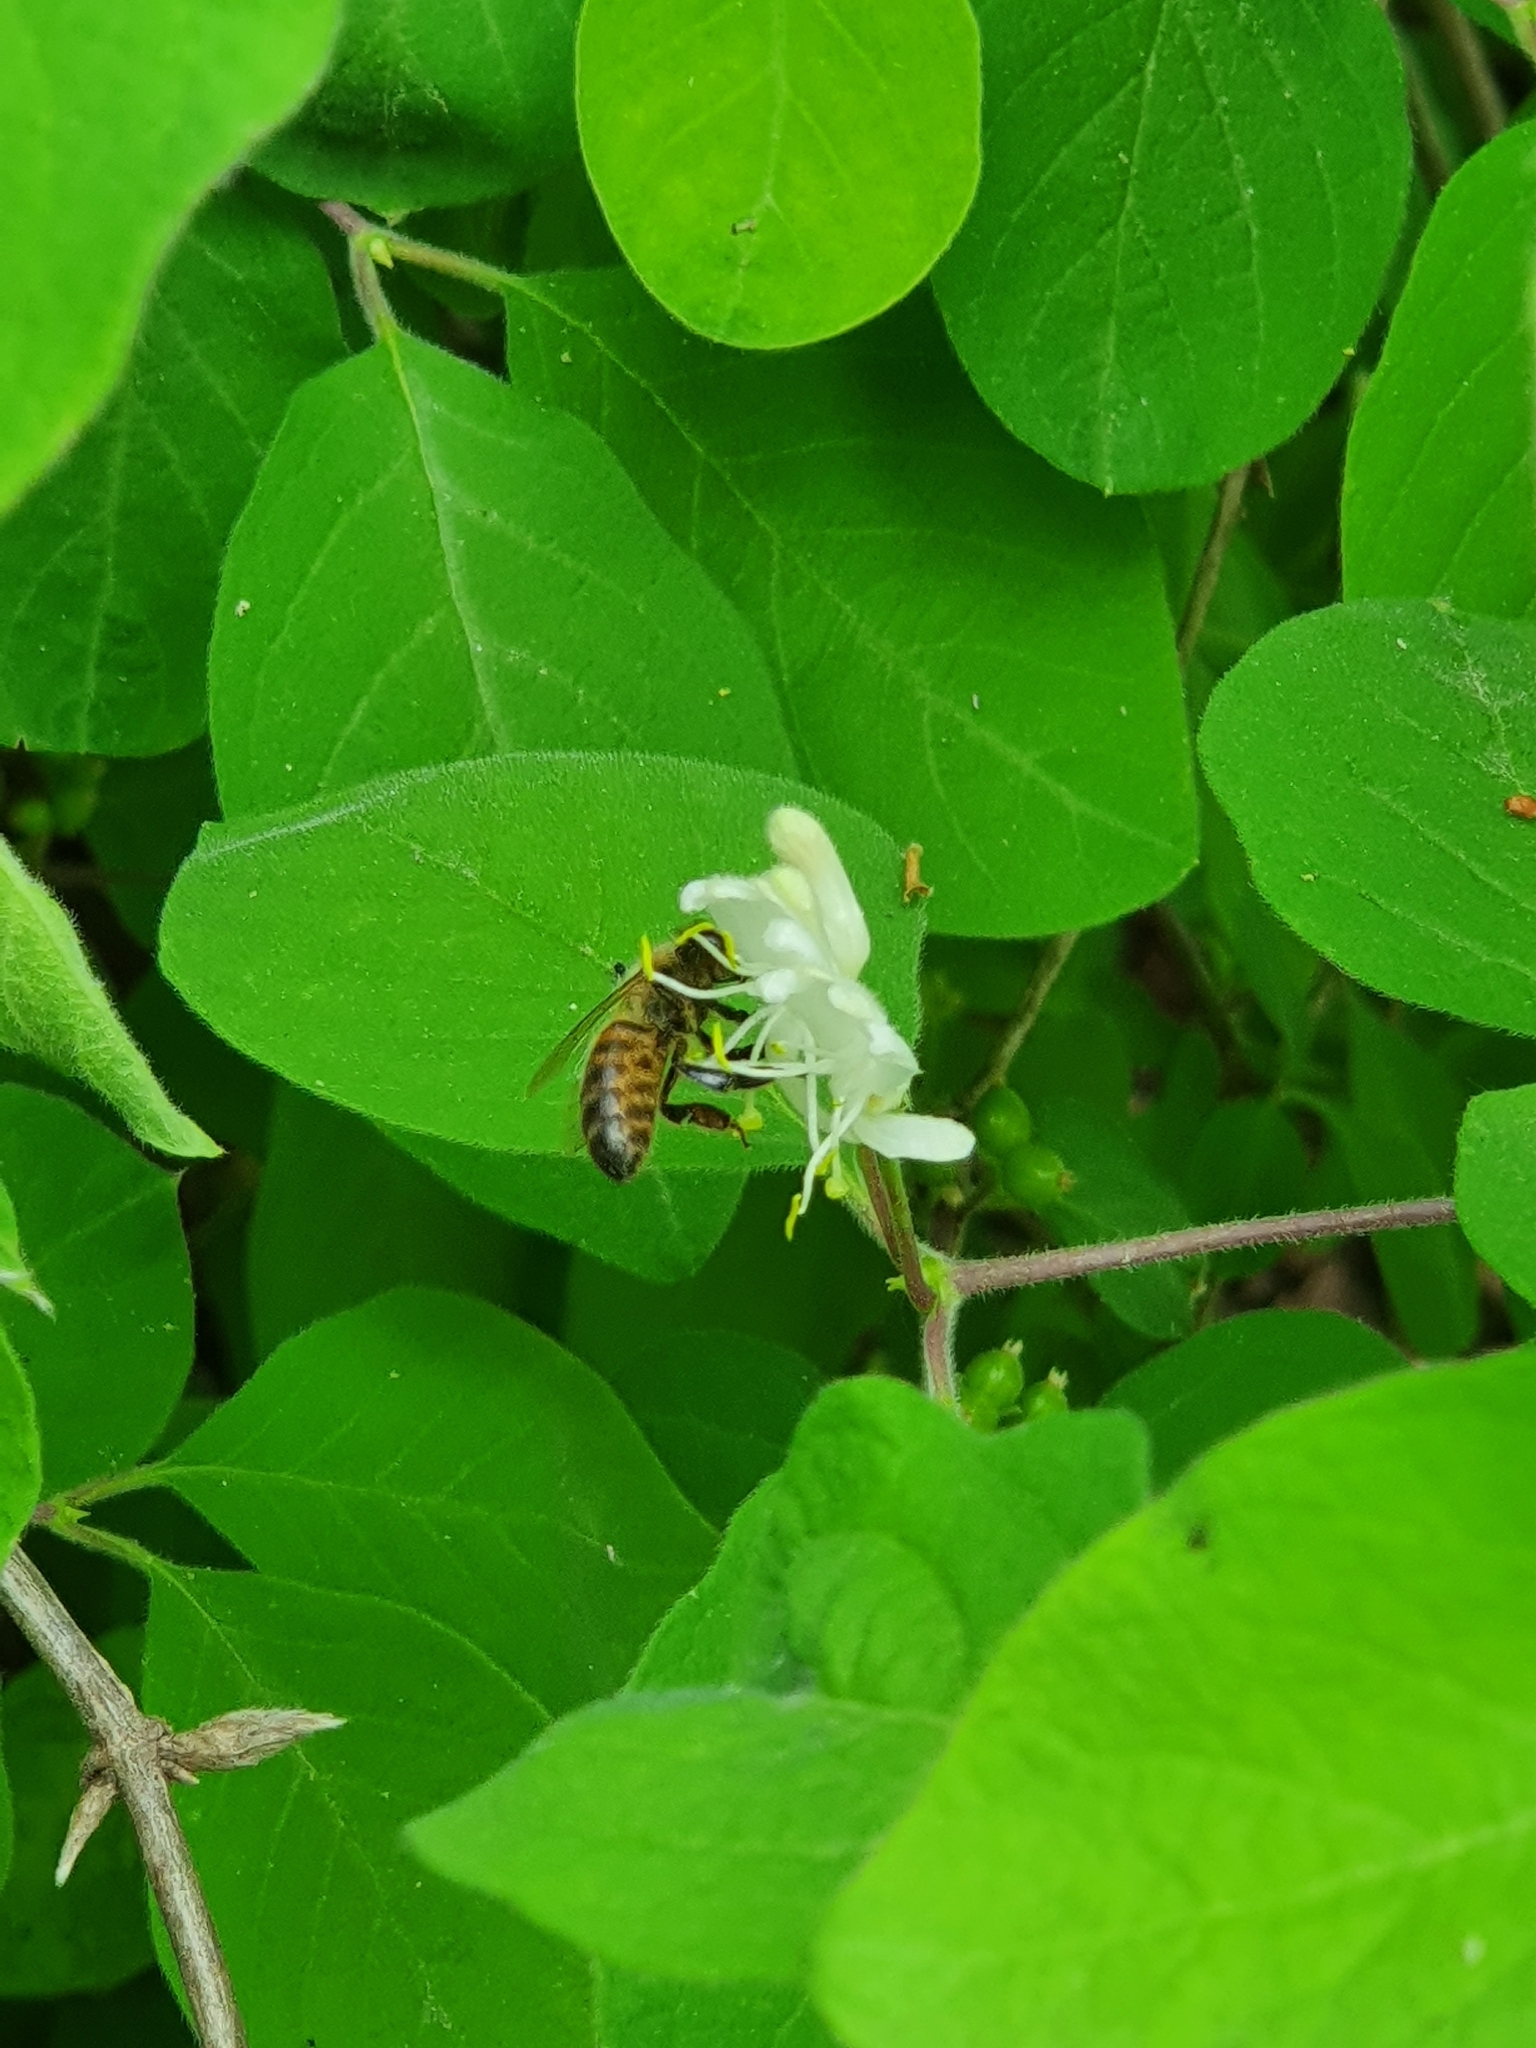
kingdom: Animalia
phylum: Arthropoda
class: Insecta
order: Hymenoptera
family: Apidae
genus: Apis
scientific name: Apis mellifera
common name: Honey bee
